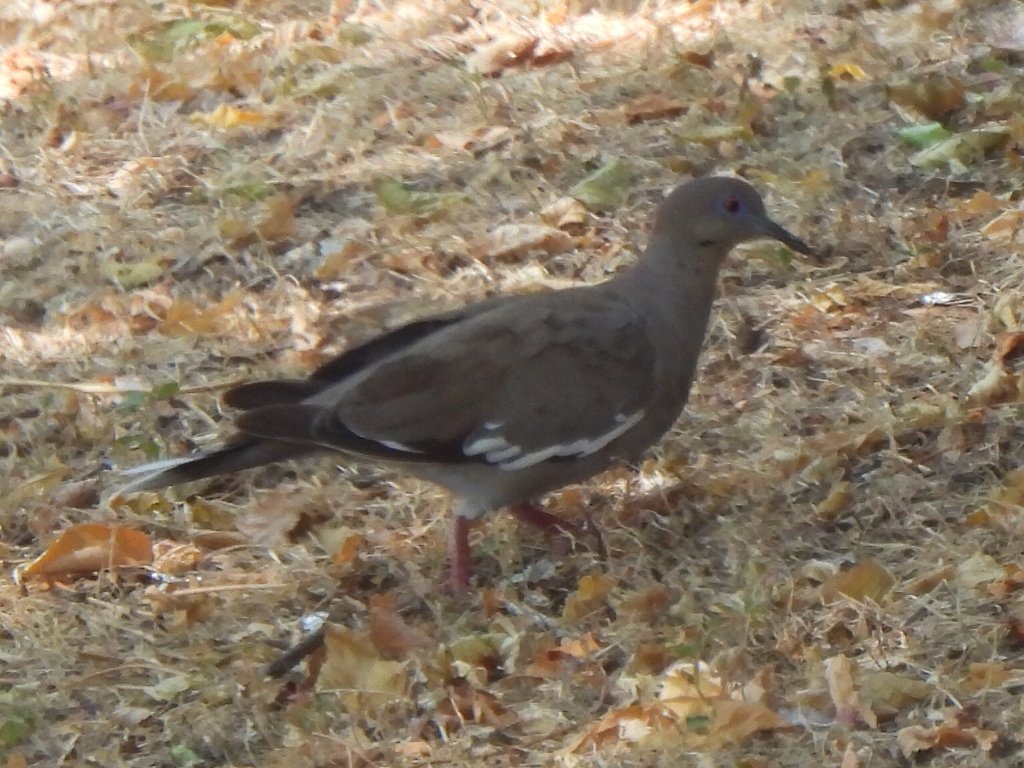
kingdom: Animalia
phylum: Chordata
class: Aves
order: Columbiformes
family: Columbidae
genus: Zenaida
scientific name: Zenaida asiatica
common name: White-winged dove
